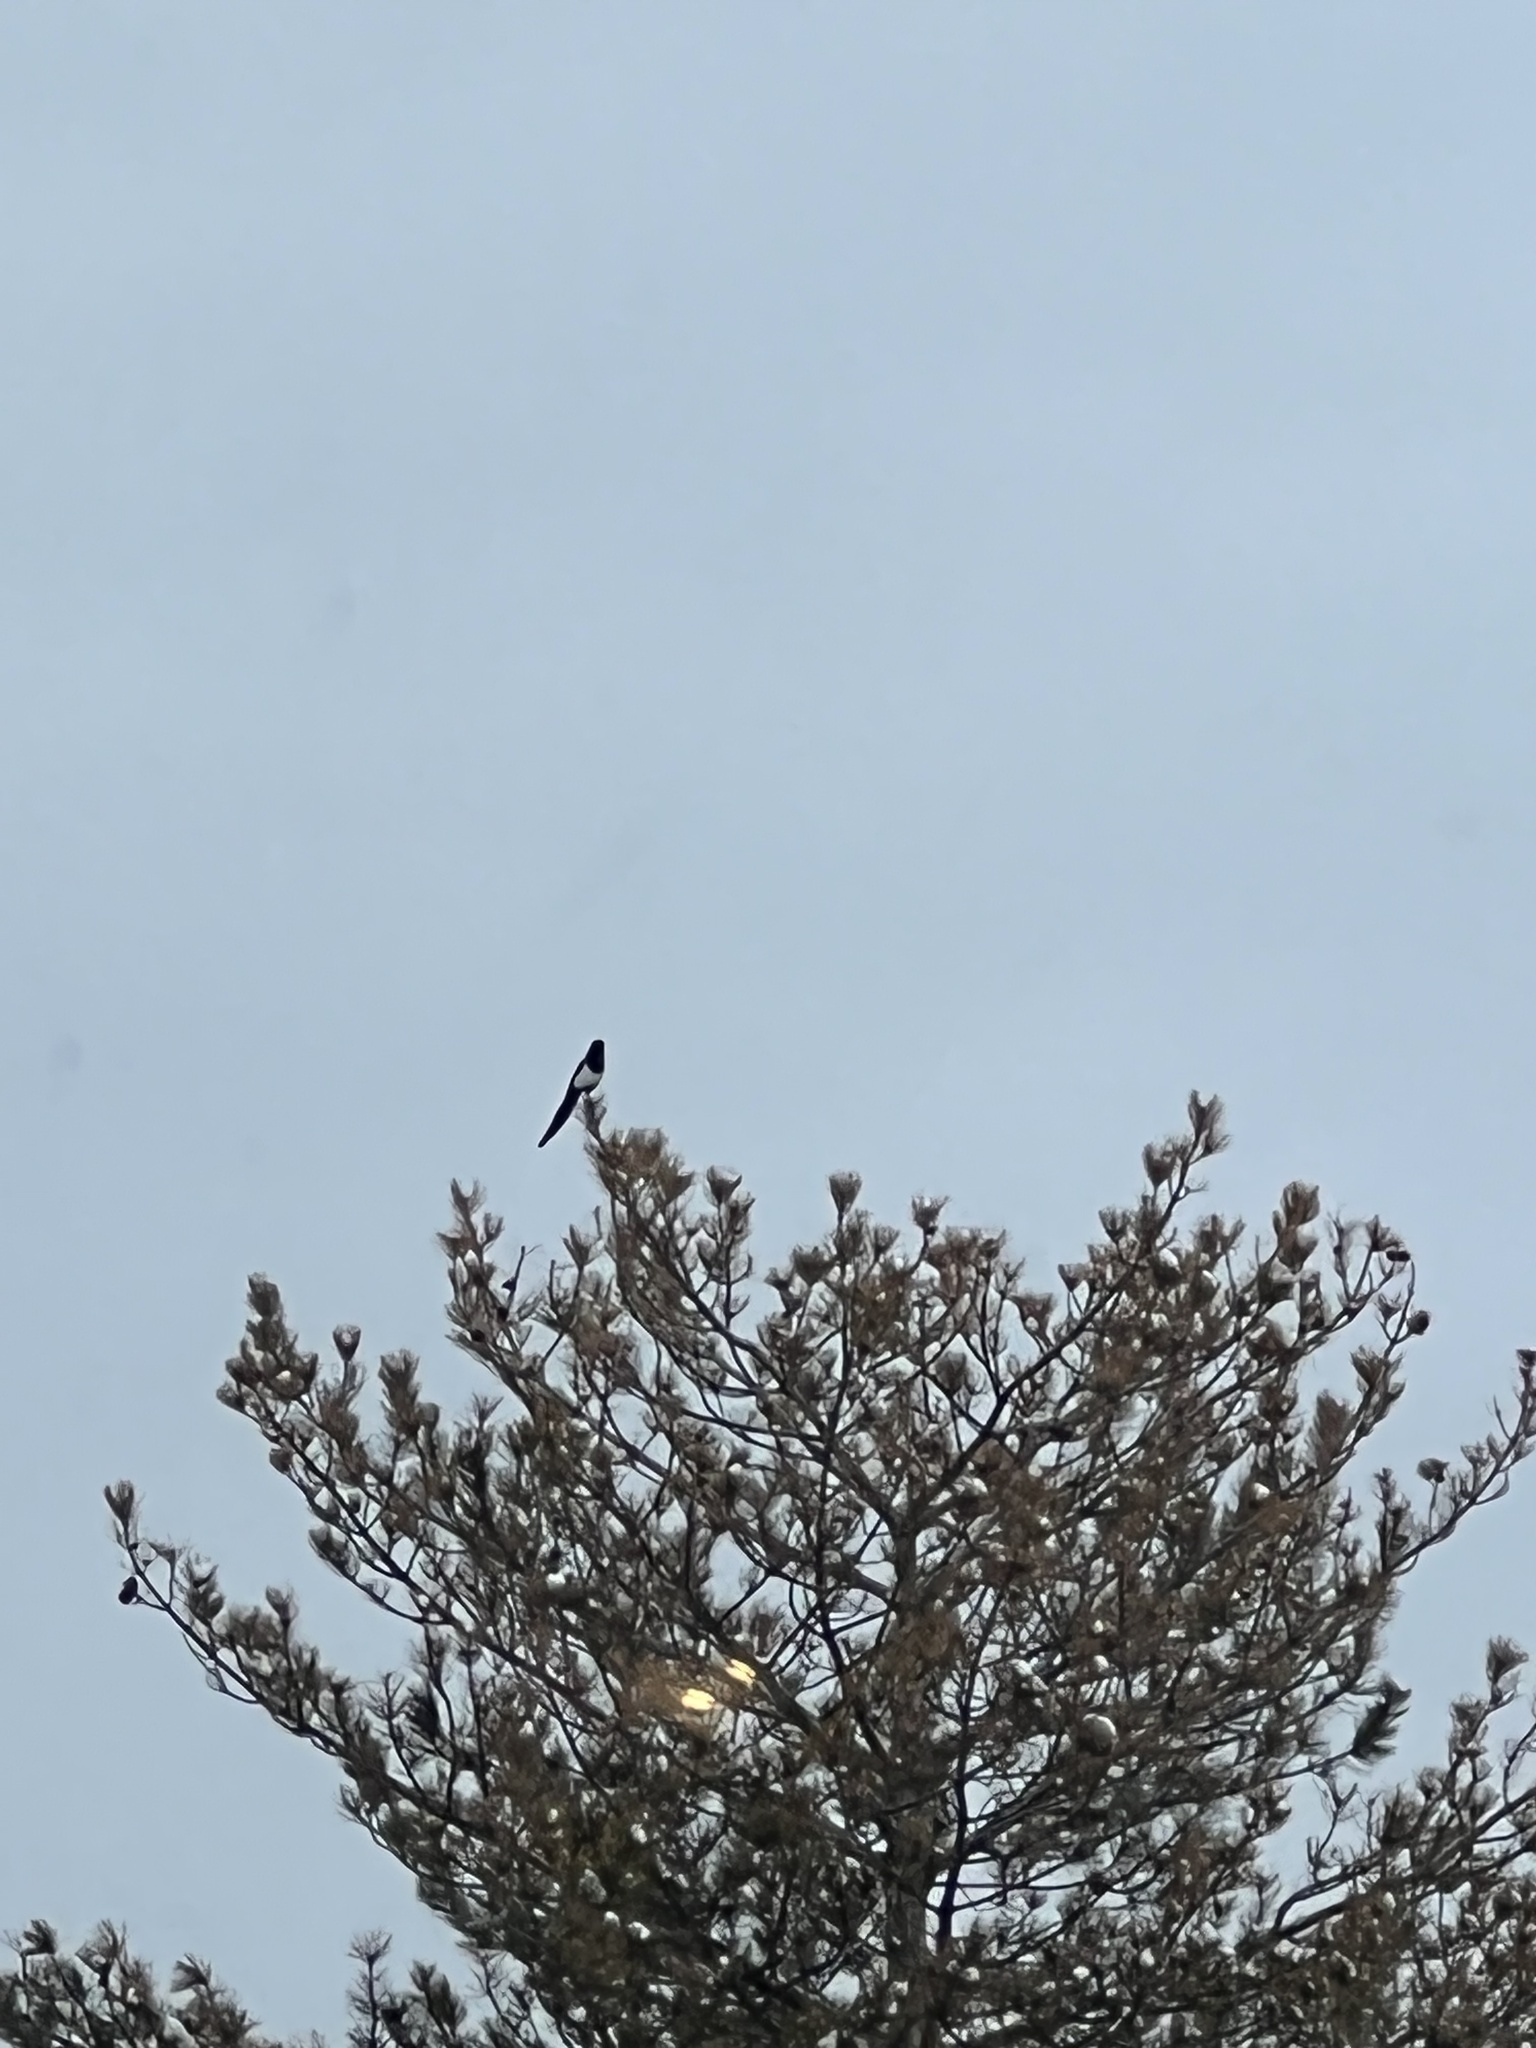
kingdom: Animalia
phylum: Chordata
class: Aves
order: Passeriformes
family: Corvidae
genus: Pica
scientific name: Pica hudsonia
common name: Black-billed magpie
